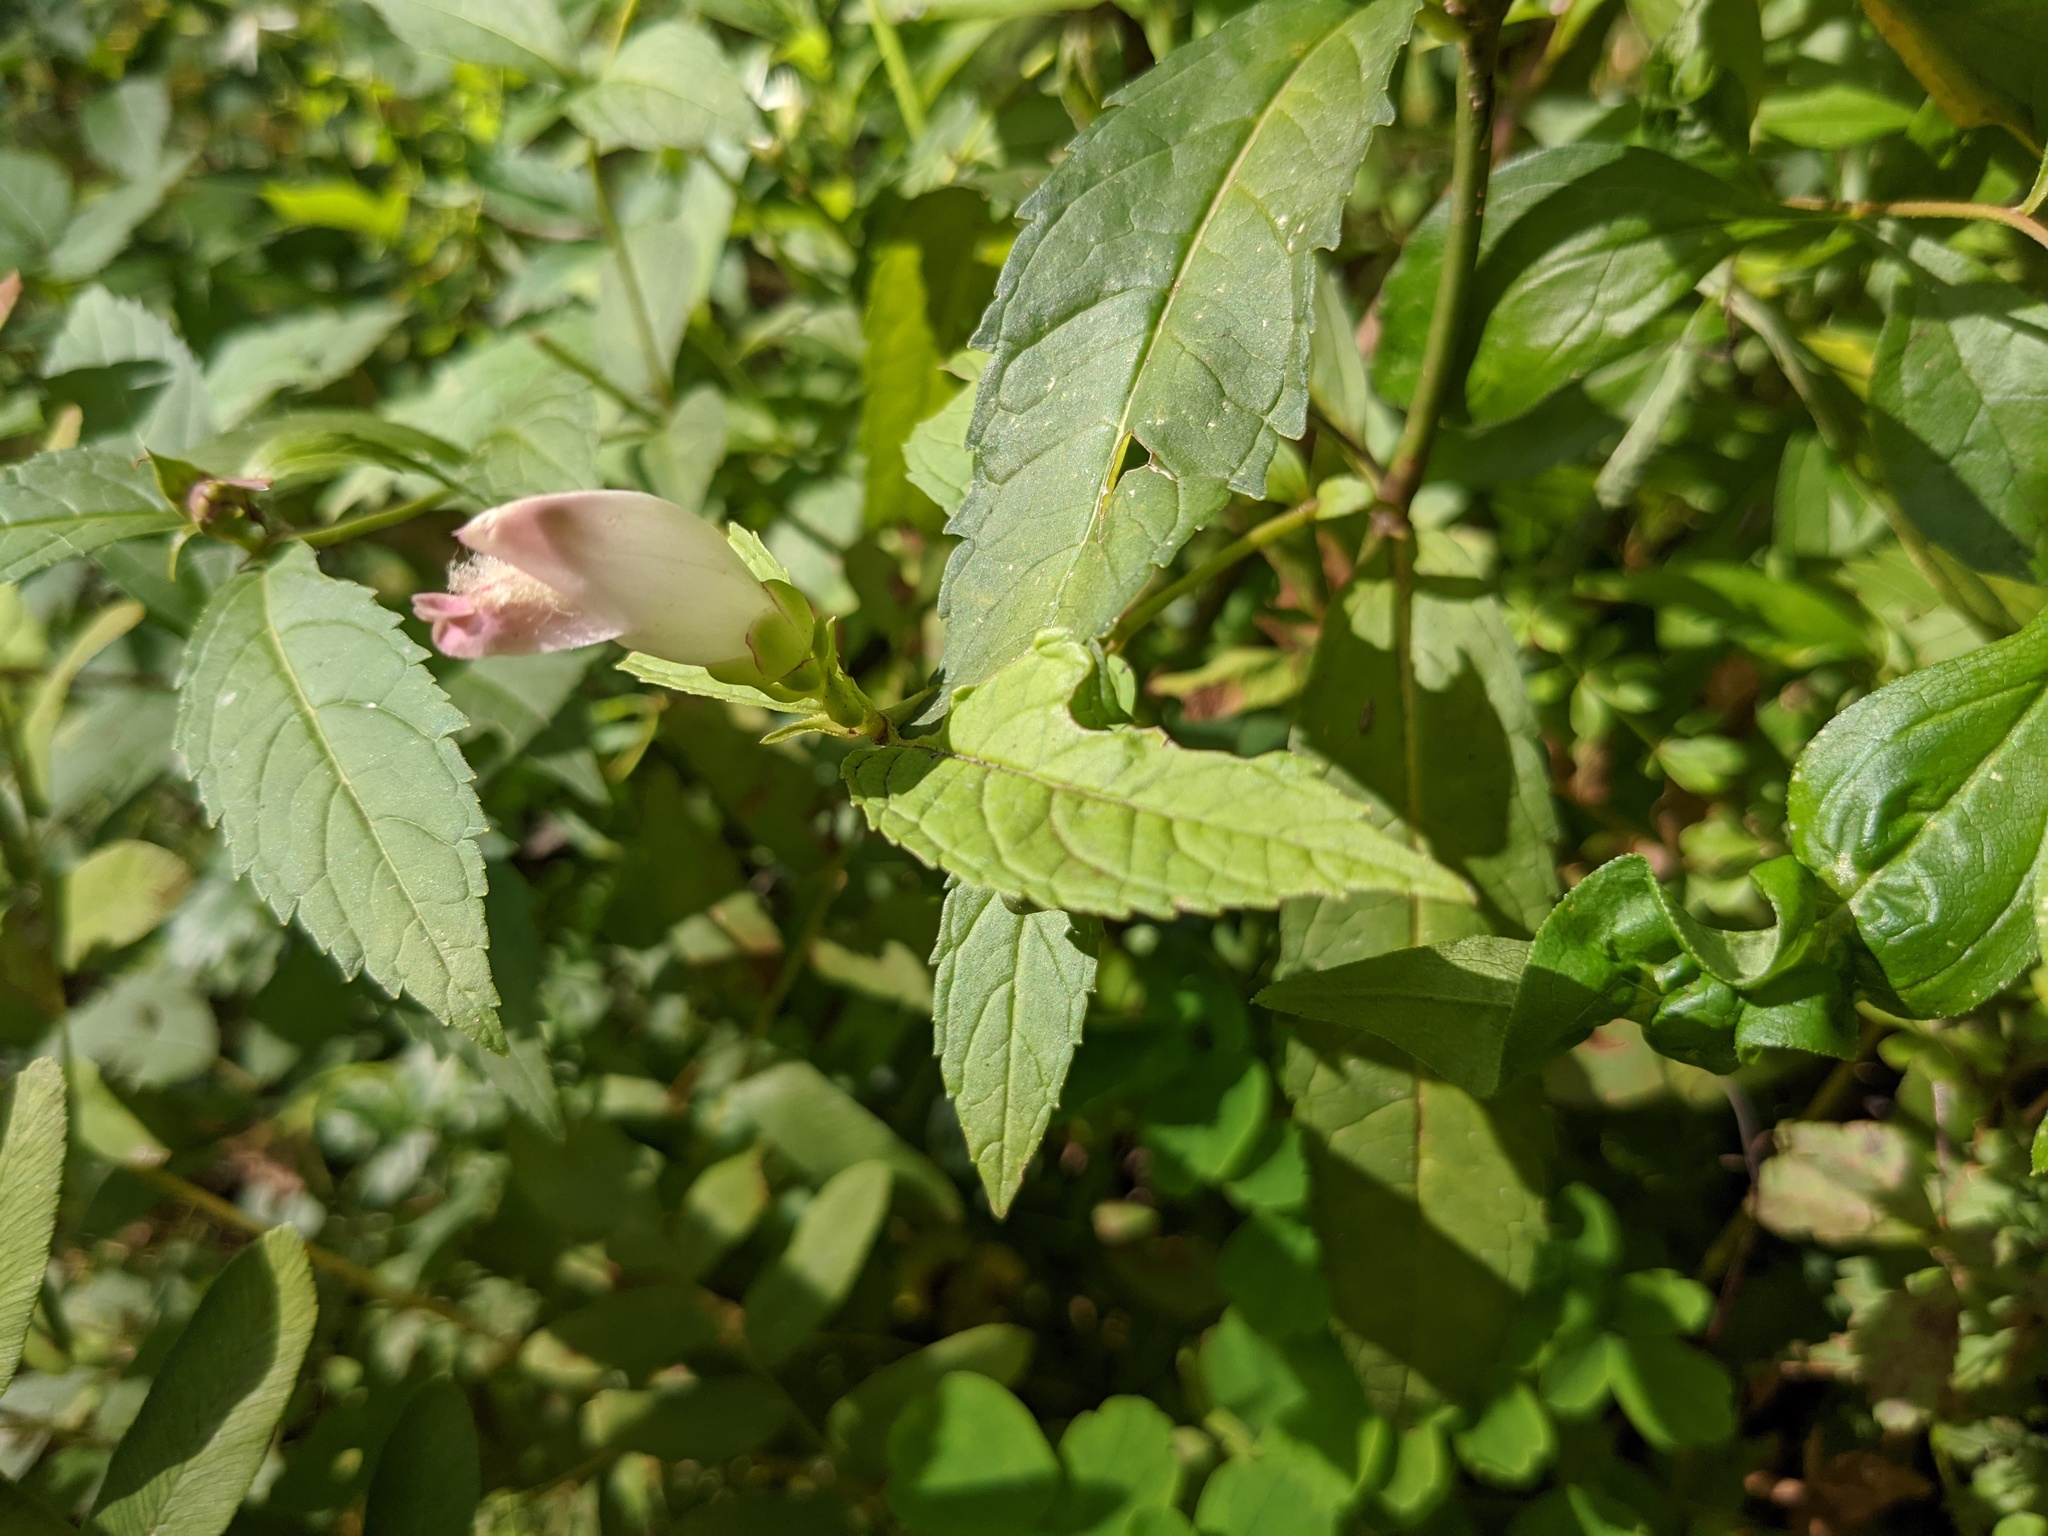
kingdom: Plantae
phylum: Tracheophyta
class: Magnoliopsida
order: Lamiales
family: Plantaginaceae
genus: Chelone
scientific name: Chelone glabra
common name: Snakehead
